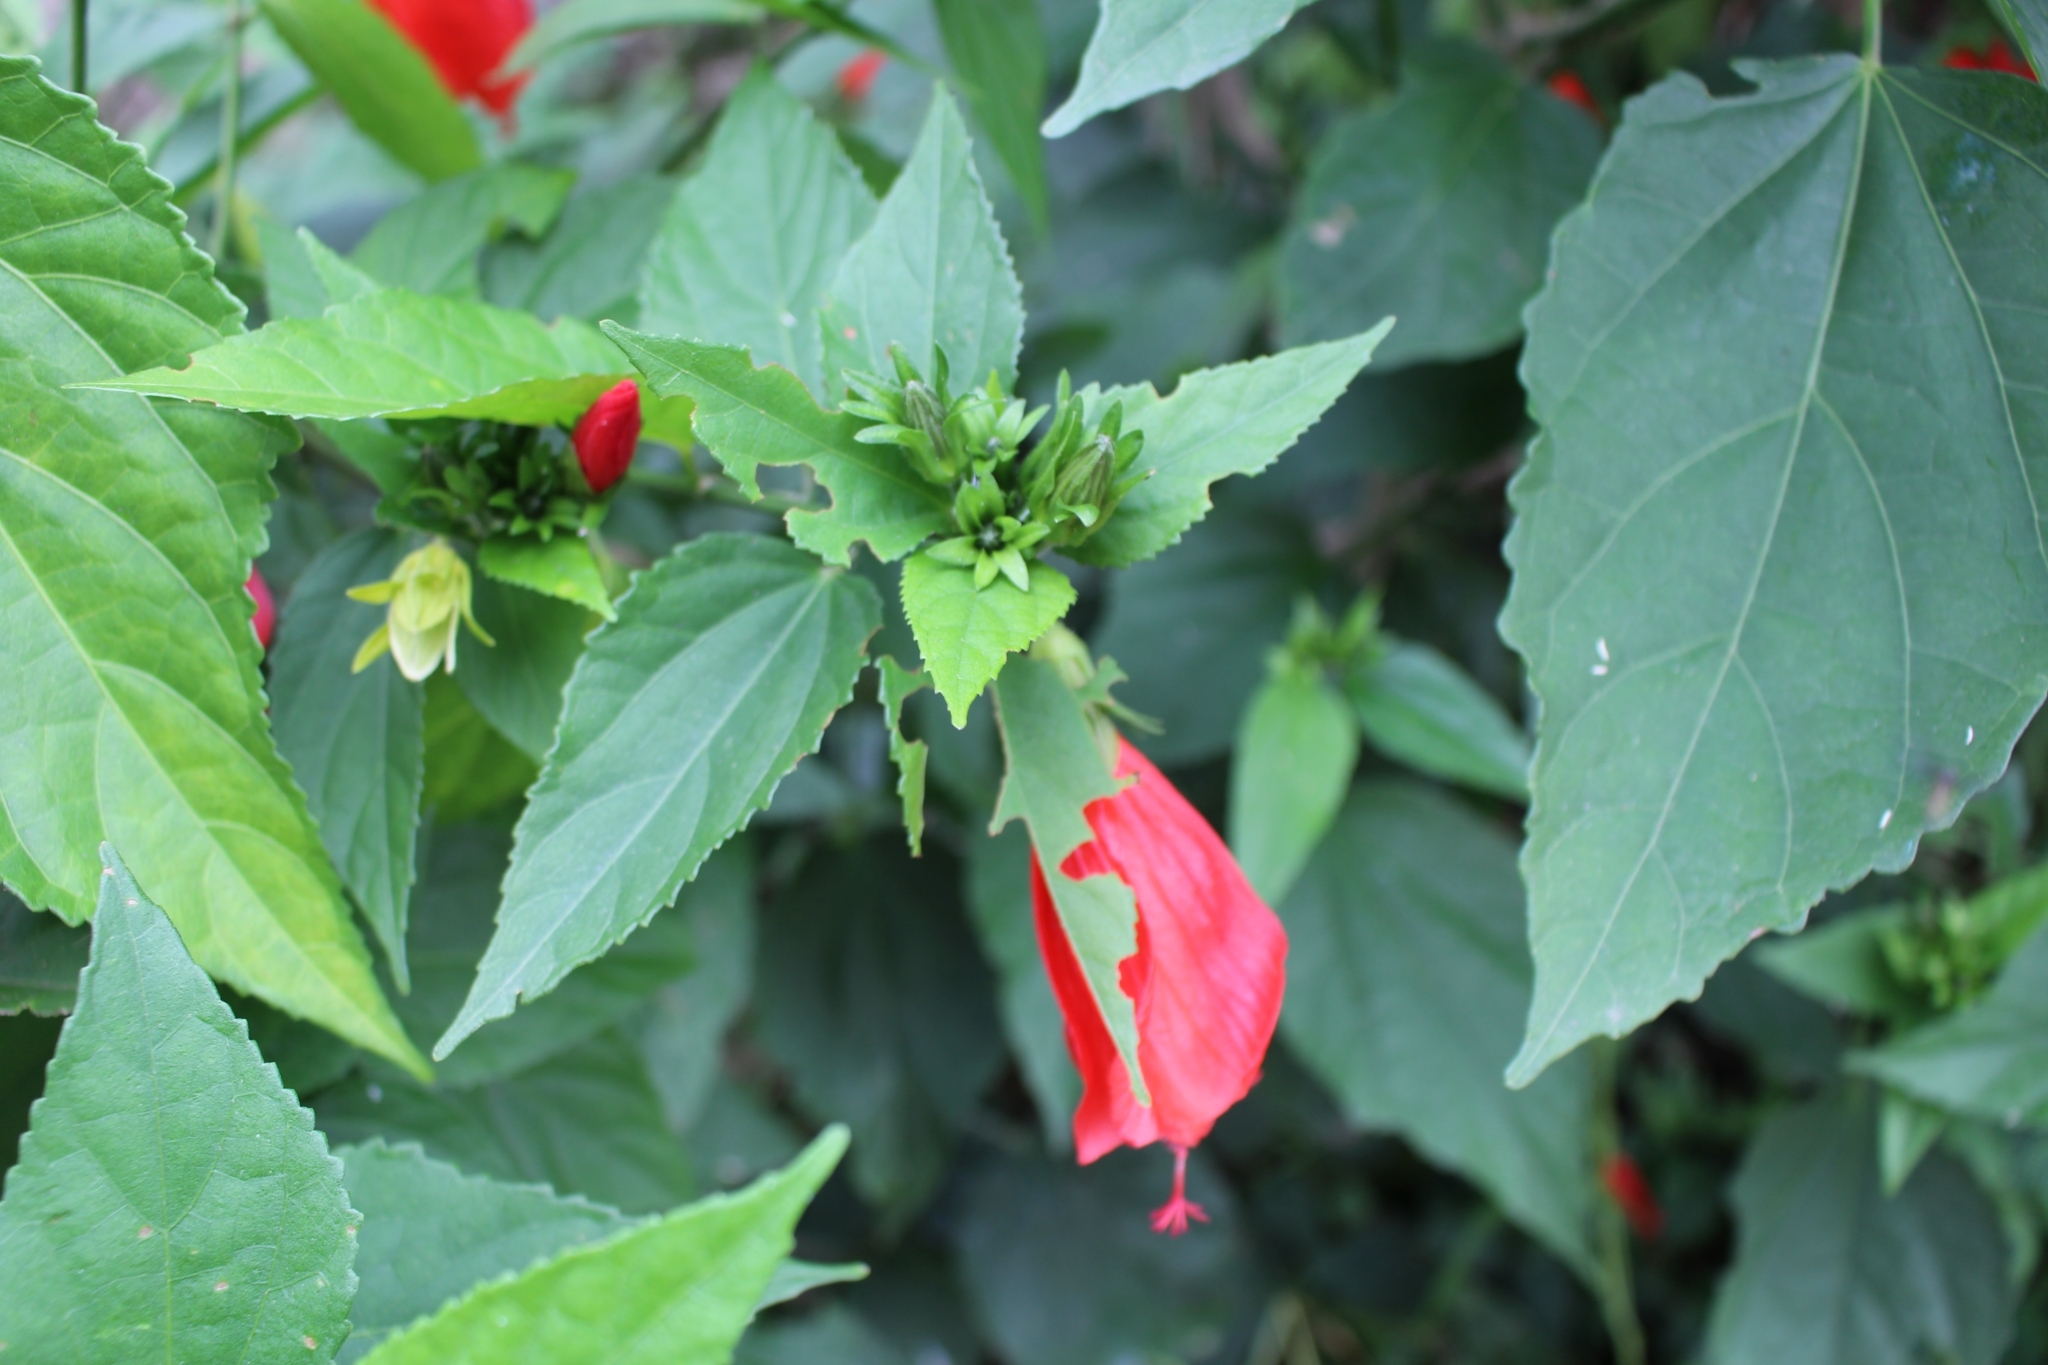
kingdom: Plantae
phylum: Tracheophyta
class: Magnoliopsida
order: Malvales
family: Malvaceae
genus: Malvaviscus
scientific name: Malvaviscus penduliflorus
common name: Mazapan
